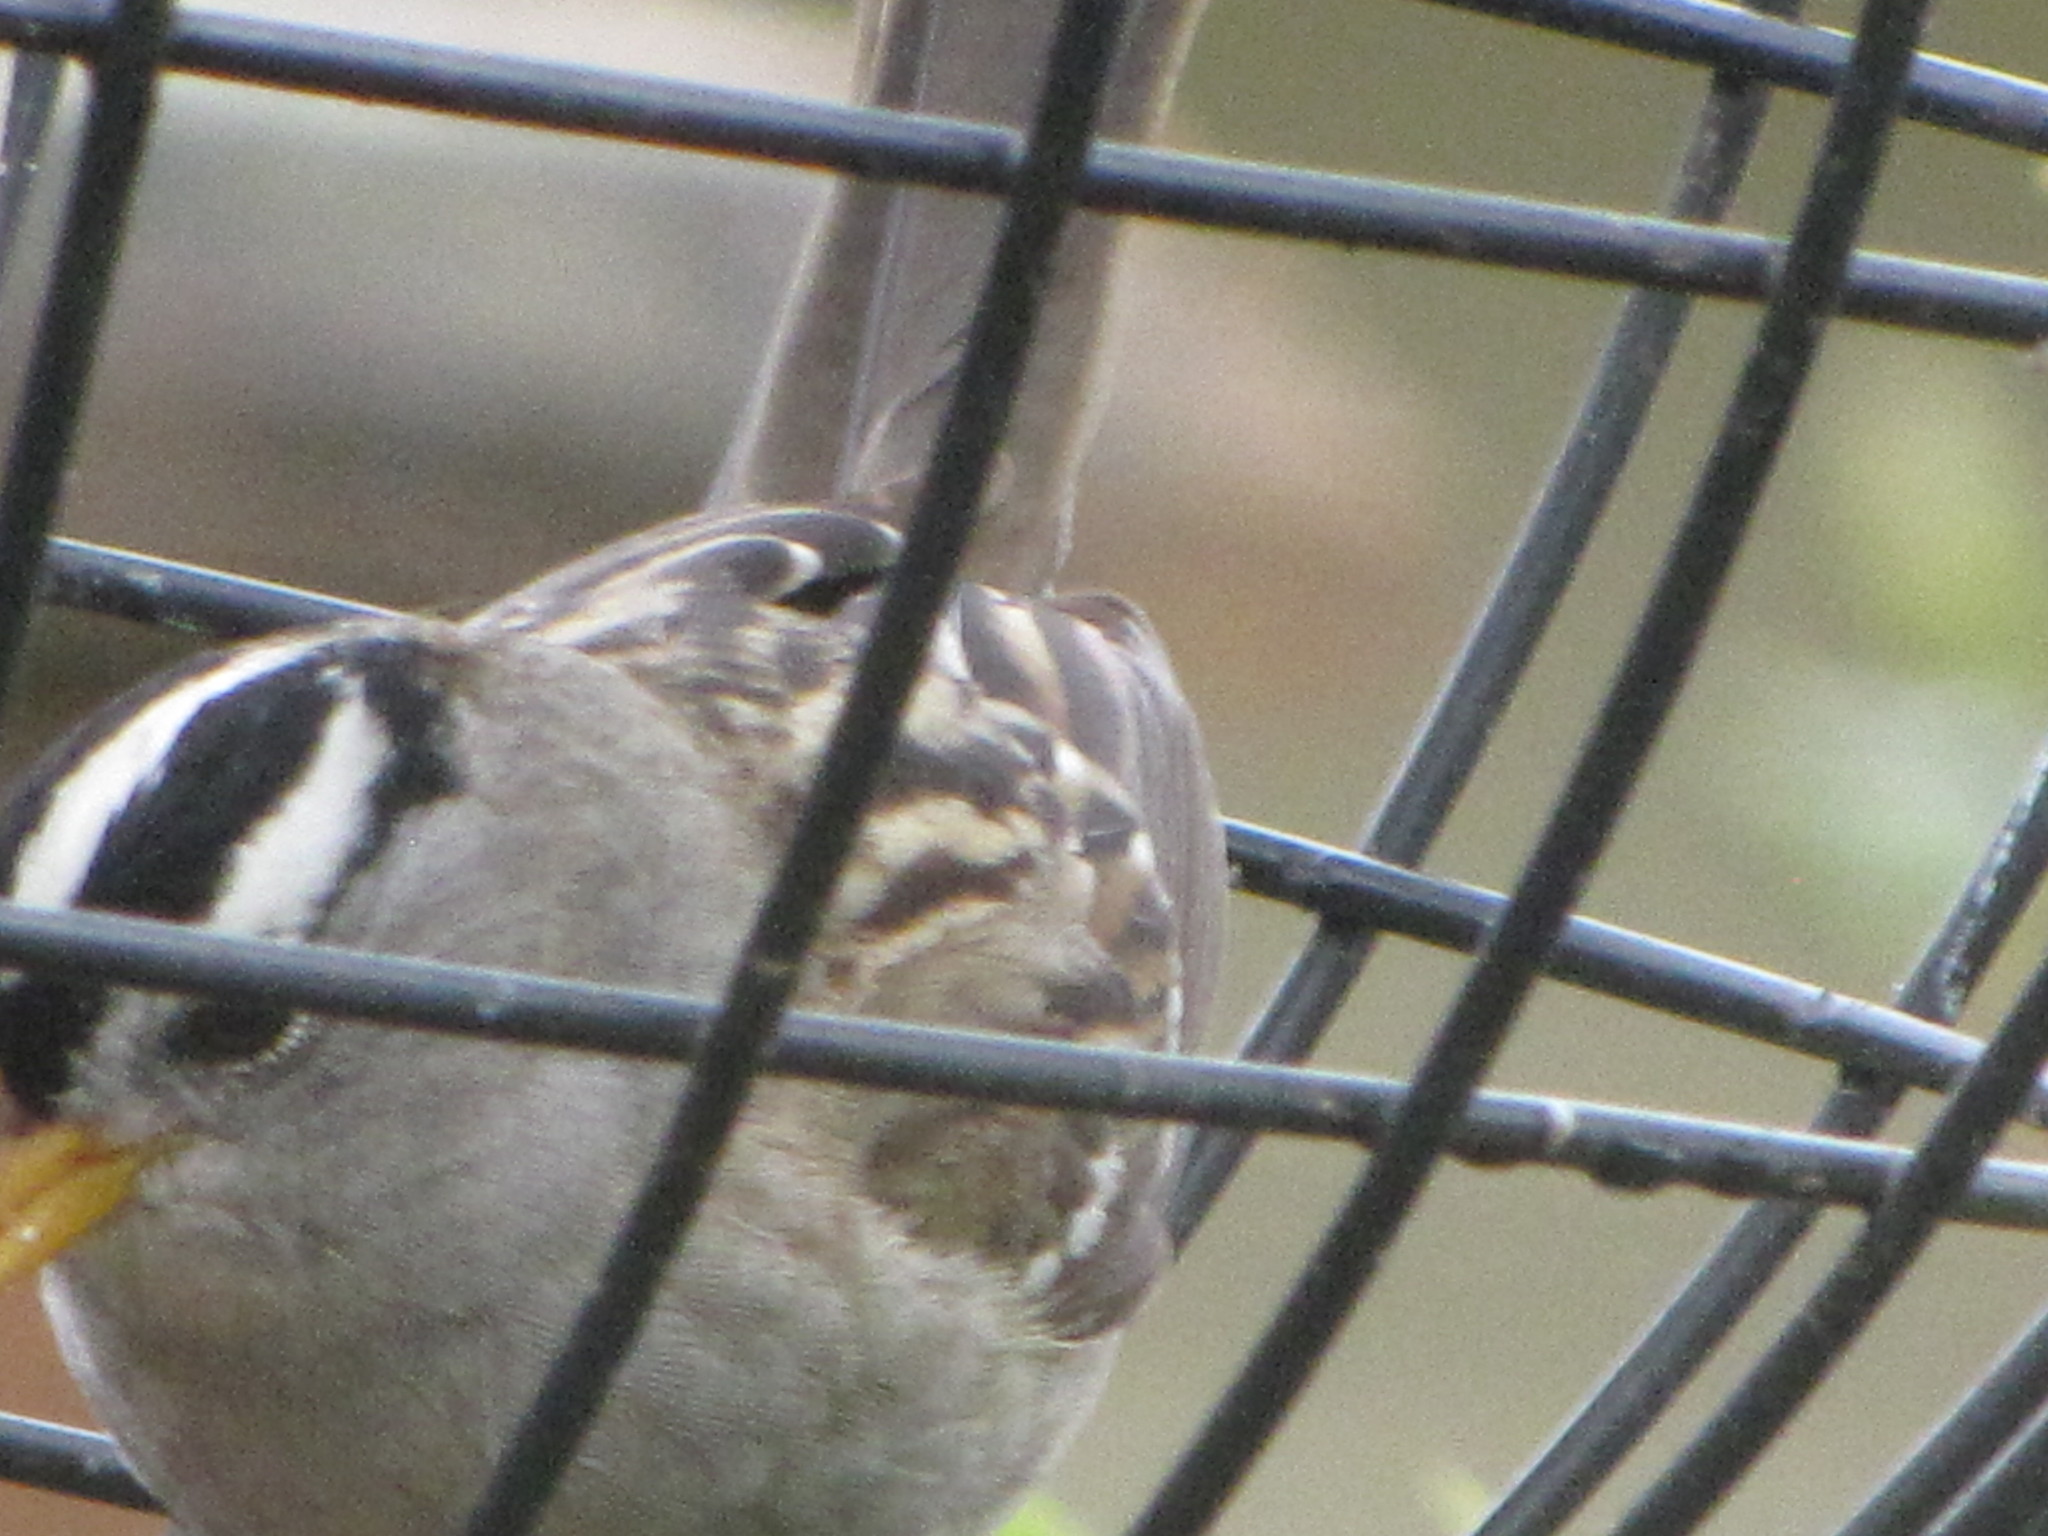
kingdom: Animalia
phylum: Chordata
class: Aves
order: Passeriformes
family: Passerellidae
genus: Zonotrichia
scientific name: Zonotrichia leucophrys
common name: White-crowned sparrow
